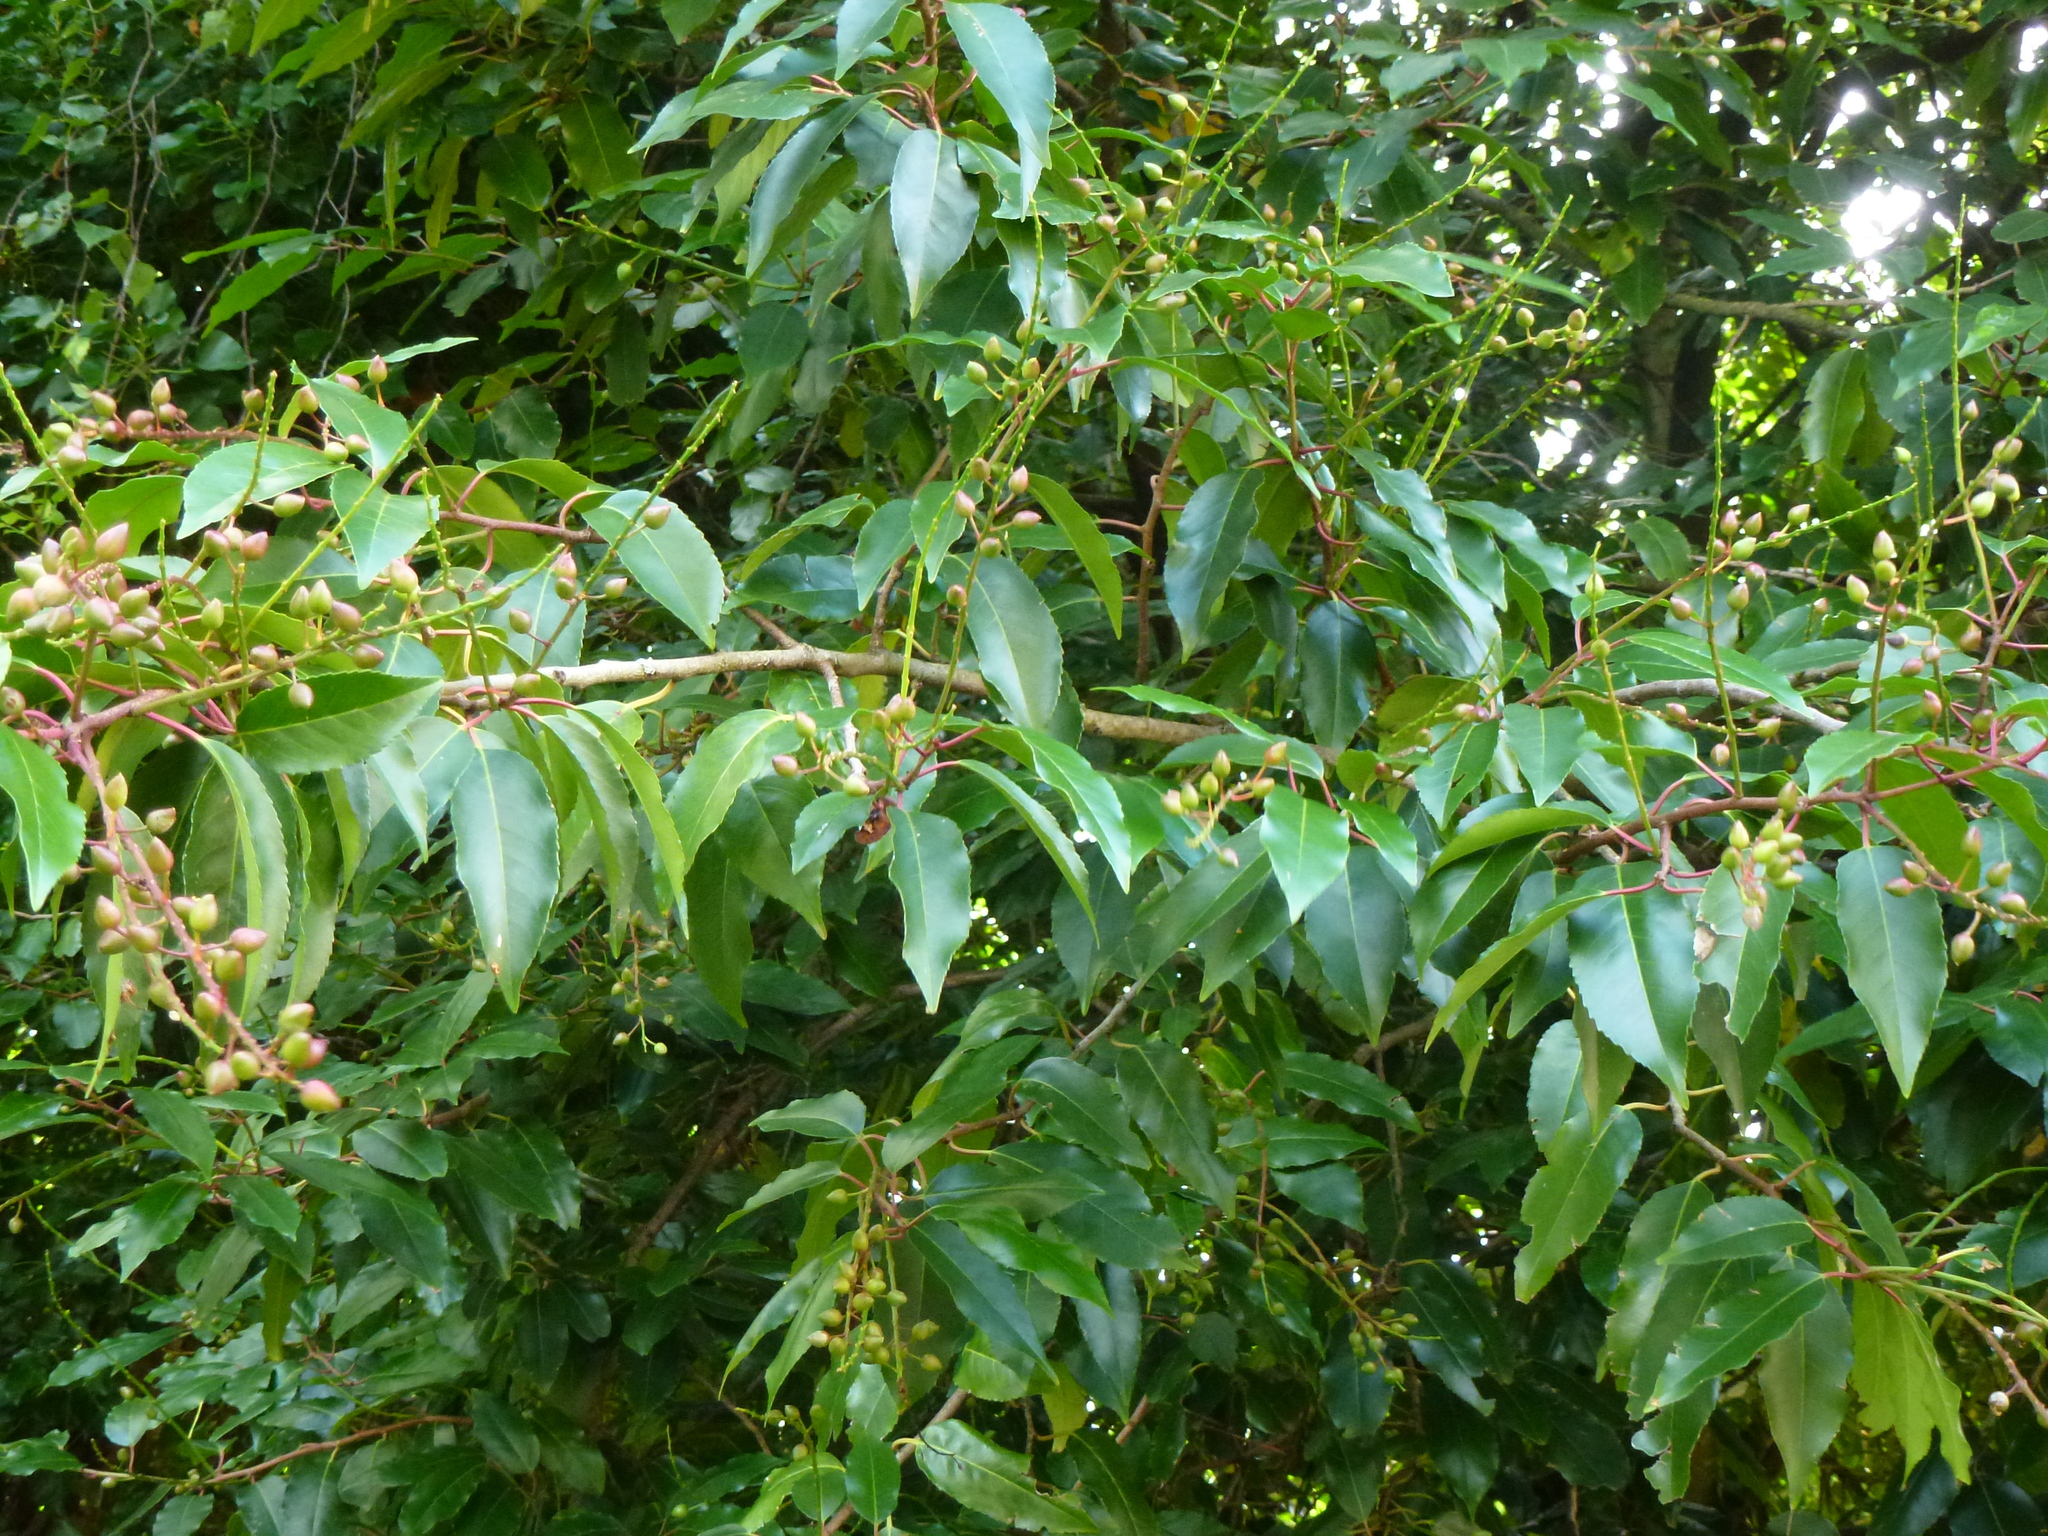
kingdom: Plantae
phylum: Tracheophyta
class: Magnoliopsida
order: Rosales
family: Rosaceae
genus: Prunus
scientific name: Prunus lusitanica
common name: Portugal laurel
